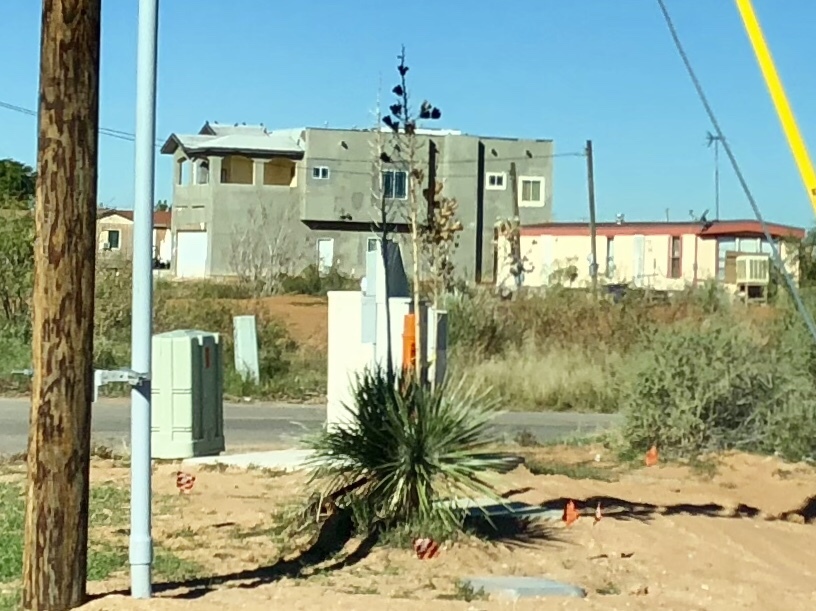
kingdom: Plantae
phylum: Tracheophyta
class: Liliopsida
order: Asparagales
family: Asparagaceae
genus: Yucca
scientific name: Yucca elata
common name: Palmella
